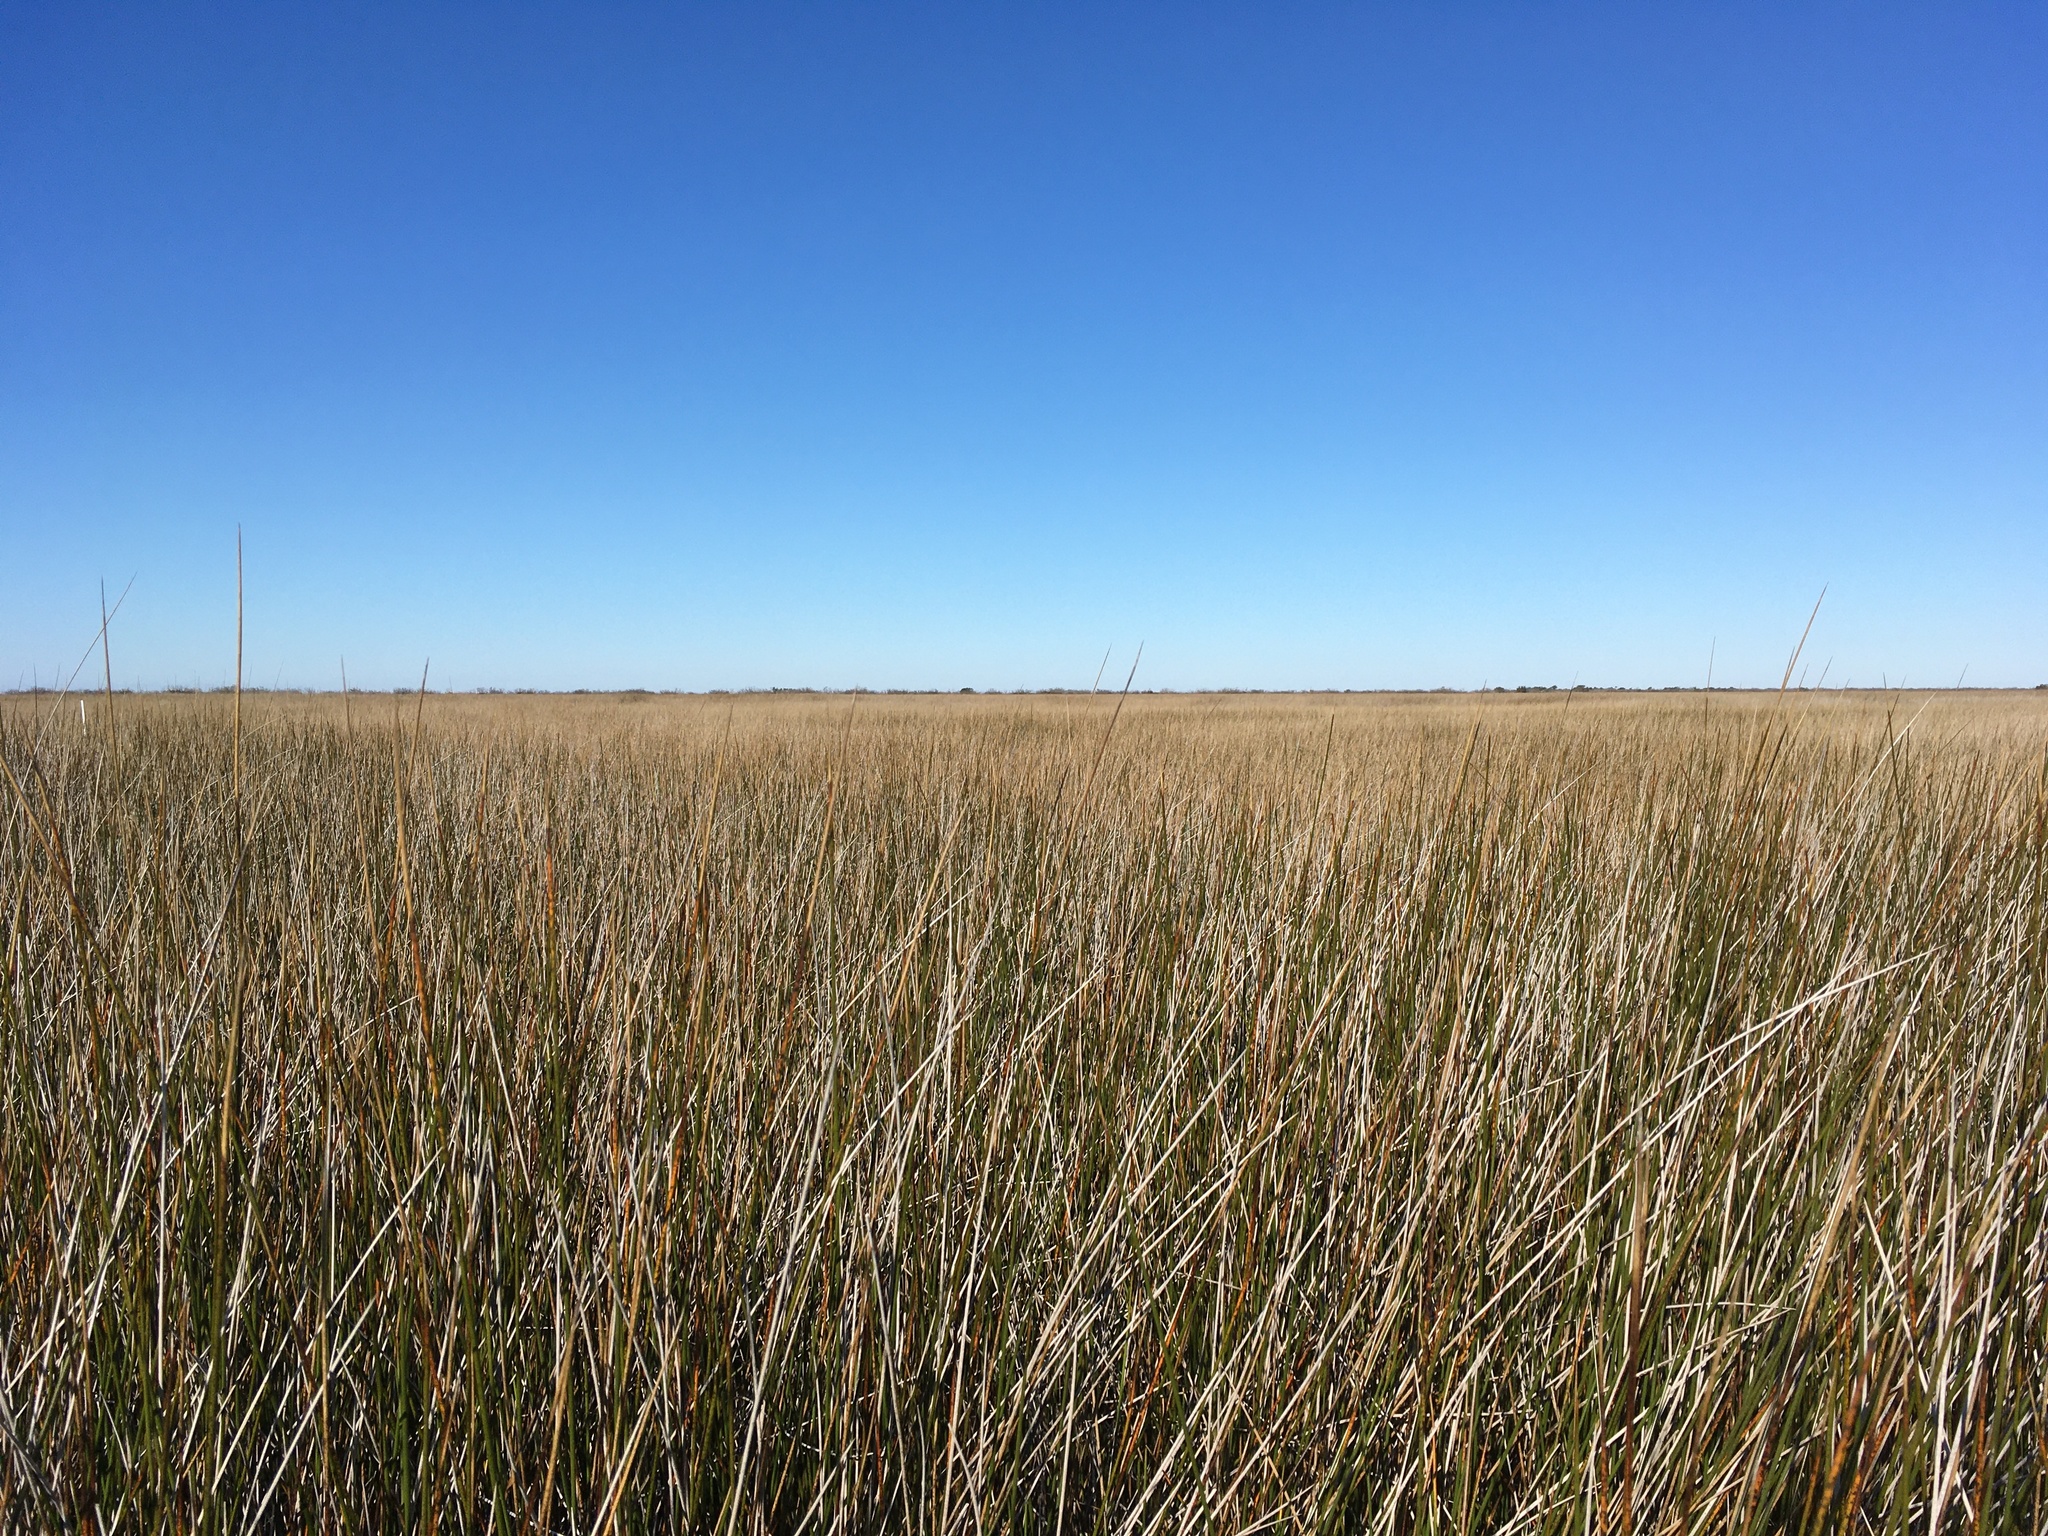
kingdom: Plantae
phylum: Tracheophyta
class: Liliopsida
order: Poales
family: Juncaceae
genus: Juncus
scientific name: Juncus roemerianus
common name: Roemer's rush
